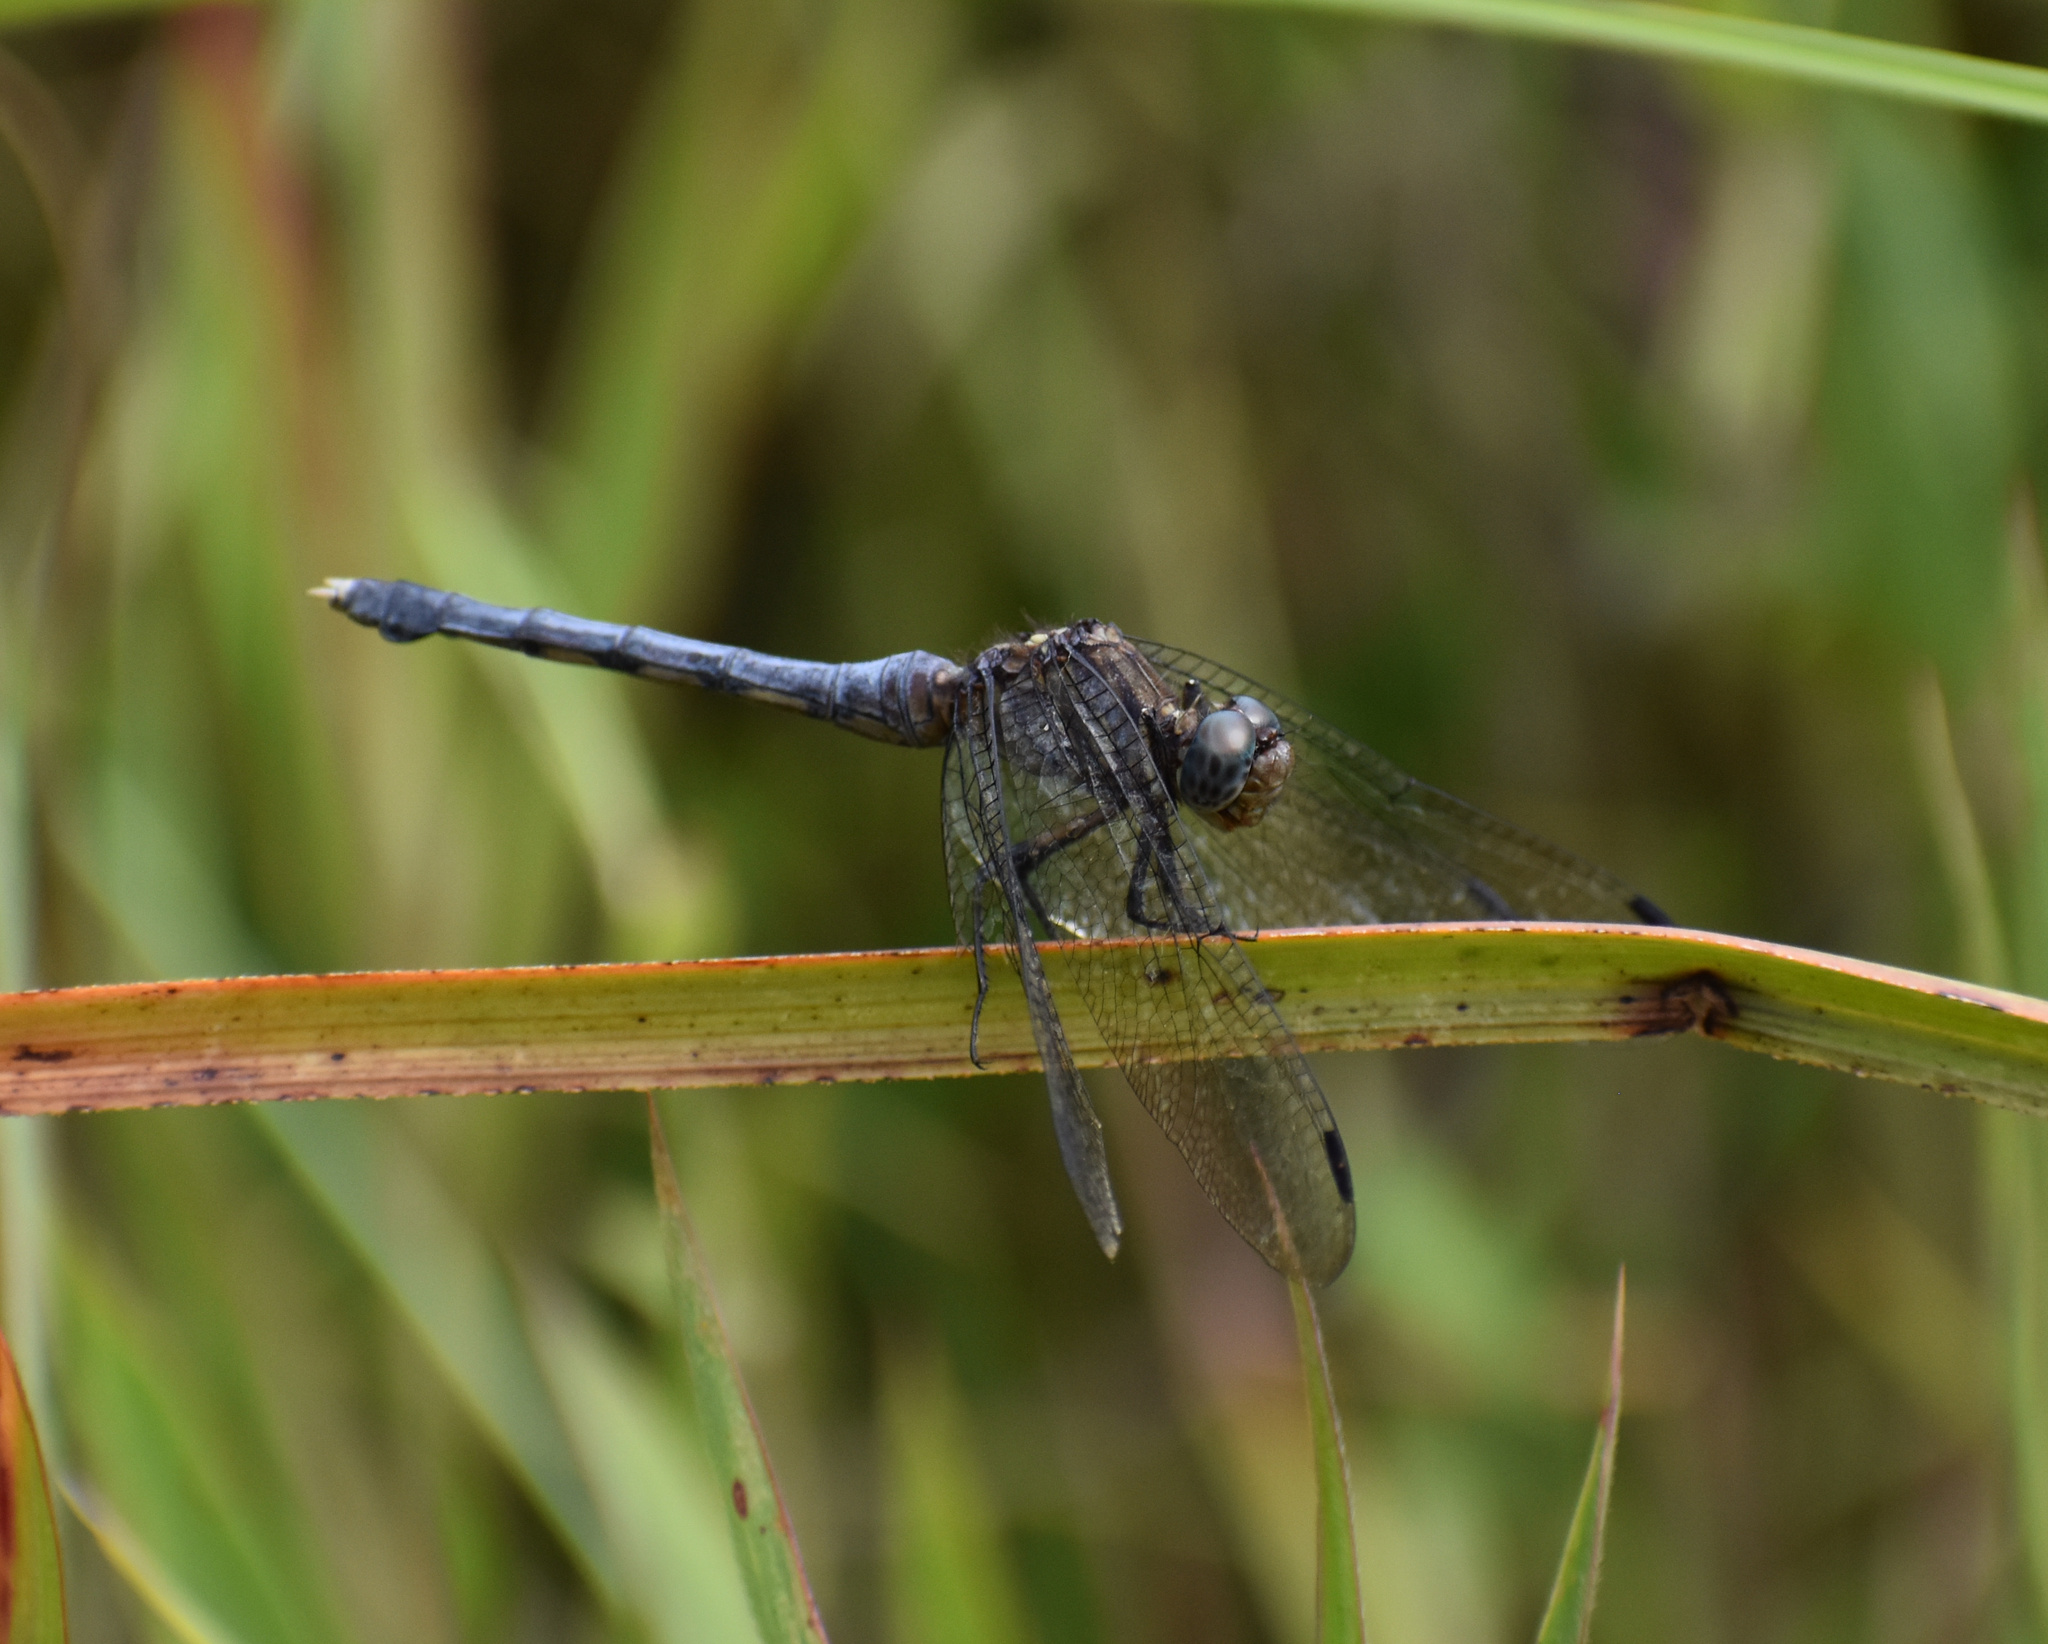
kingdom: Animalia
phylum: Arthropoda
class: Insecta
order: Odonata
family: Libellulidae
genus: Orthetrum
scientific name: Orthetrum julia
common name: Julia skimmer
